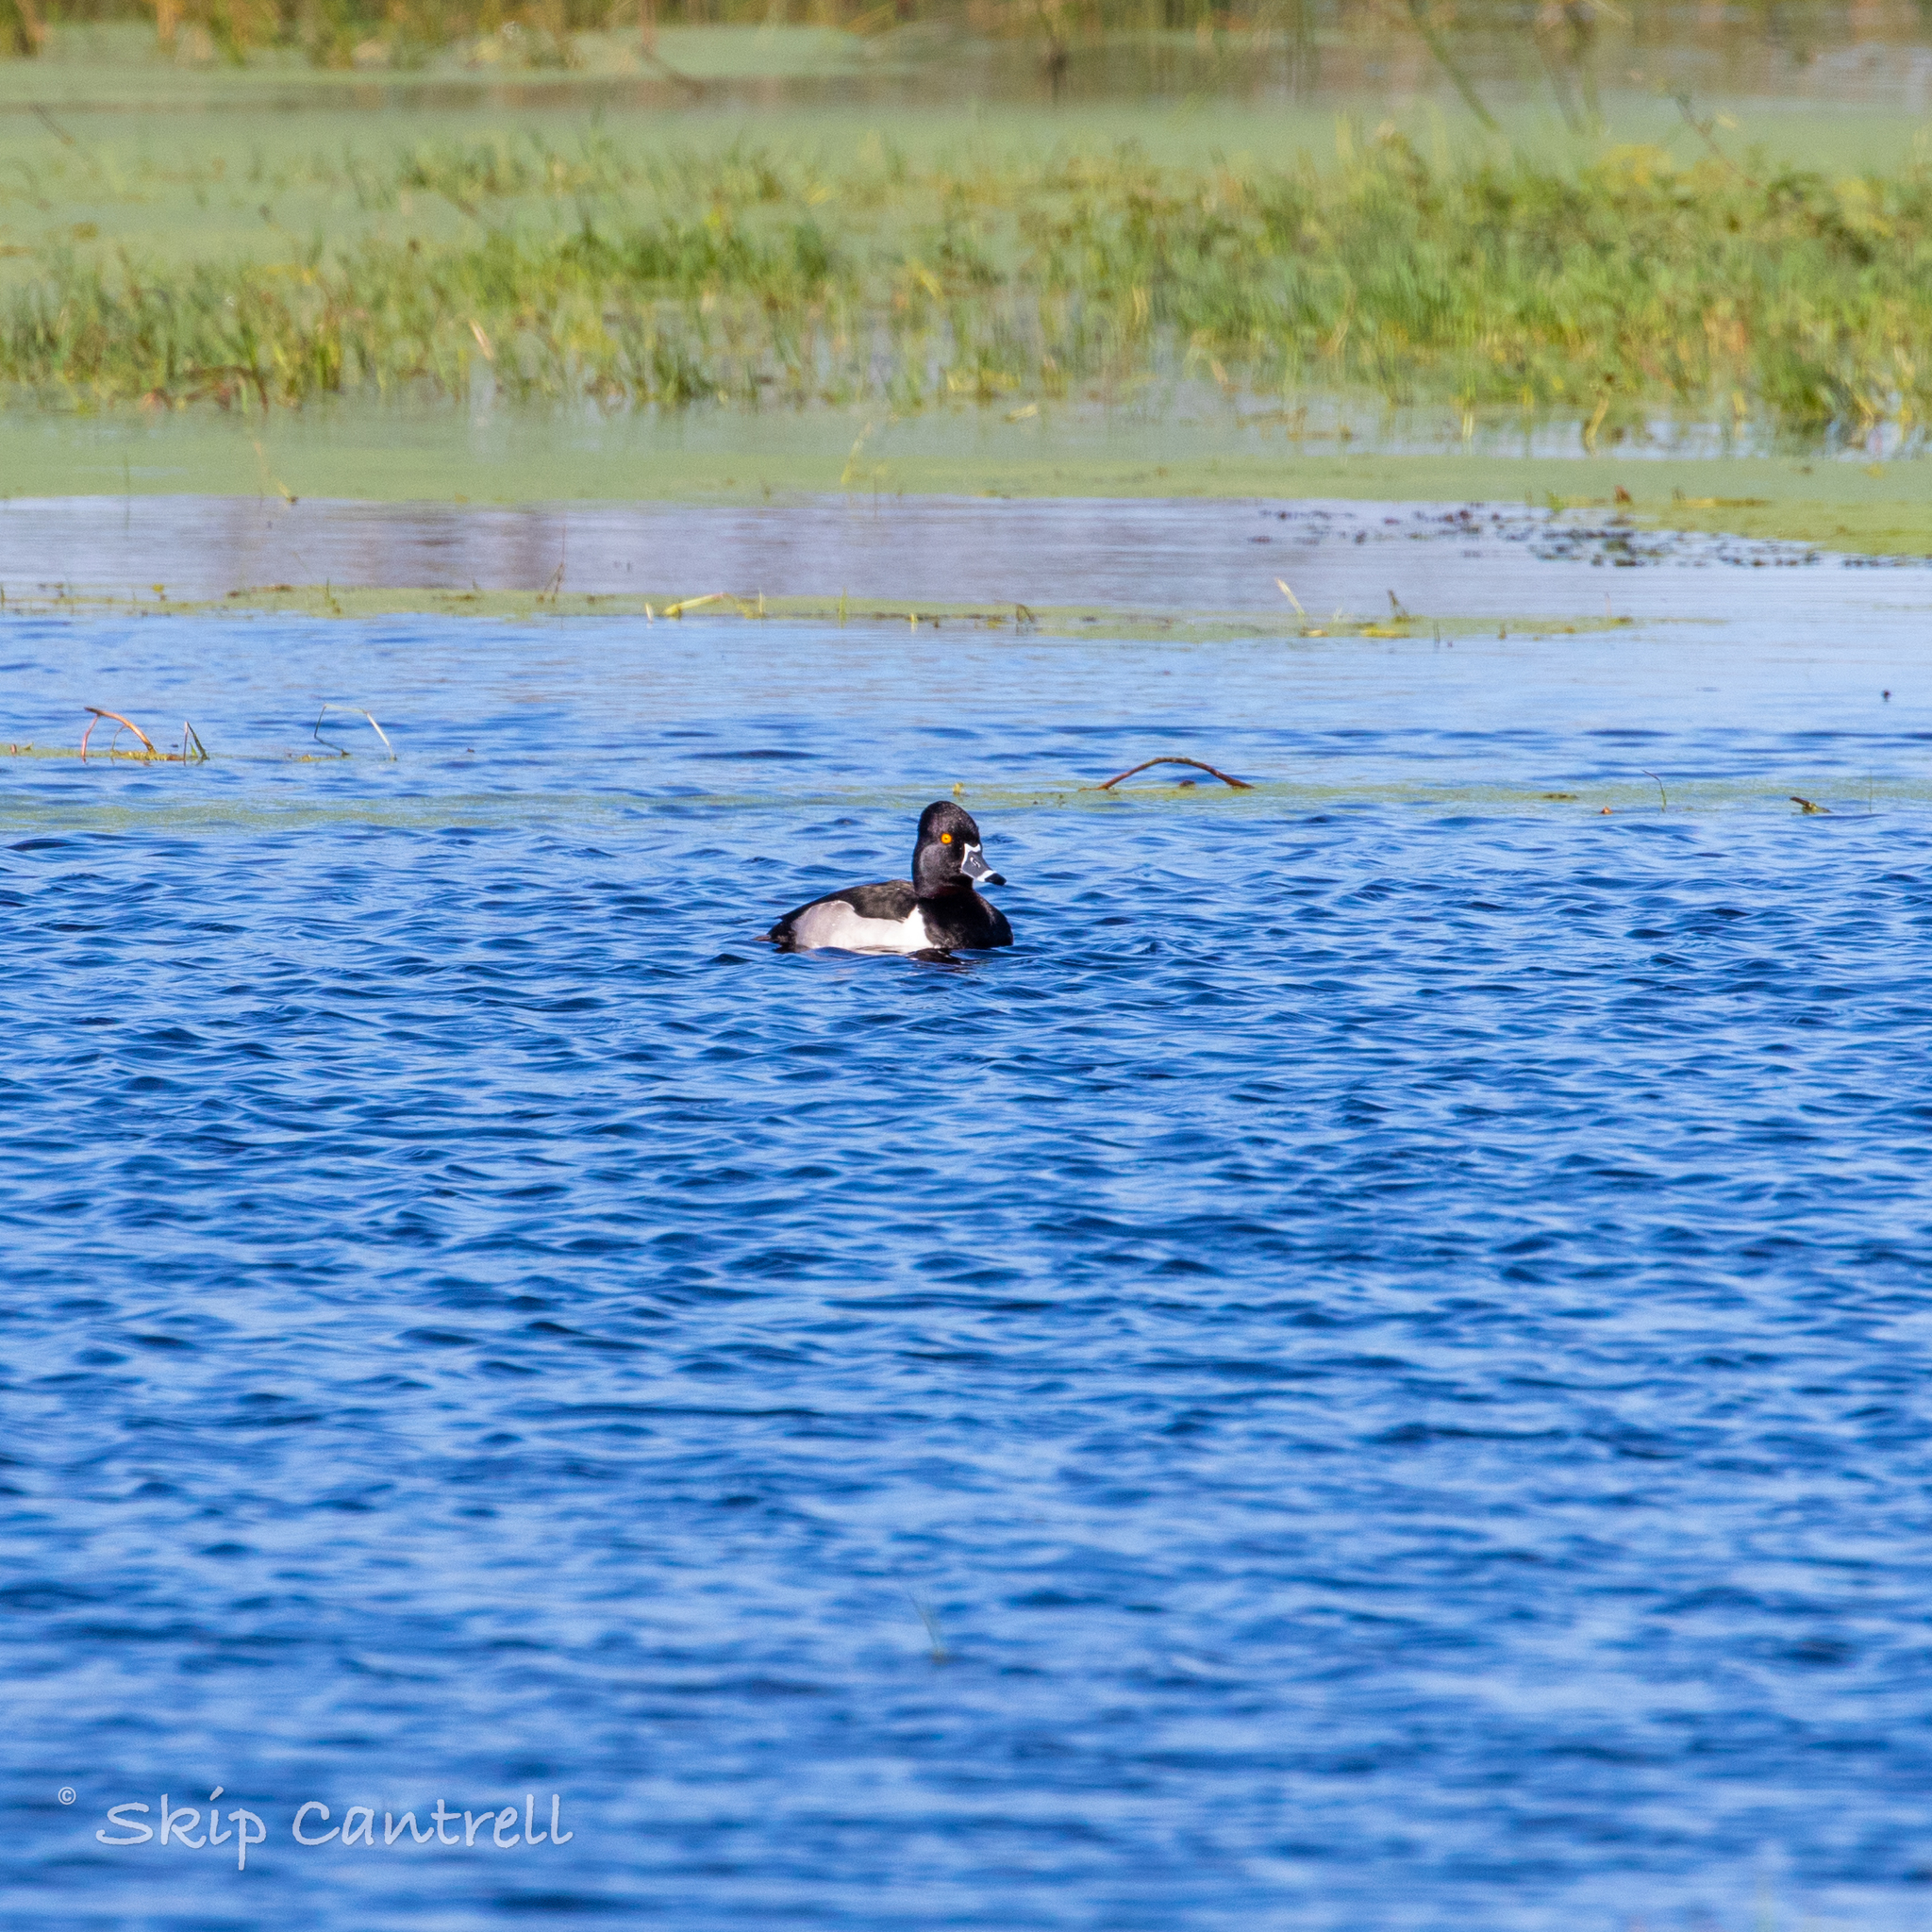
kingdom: Animalia
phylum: Chordata
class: Aves
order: Anseriformes
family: Anatidae
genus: Aythya
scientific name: Aythya collaris
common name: Ring-necked duck
